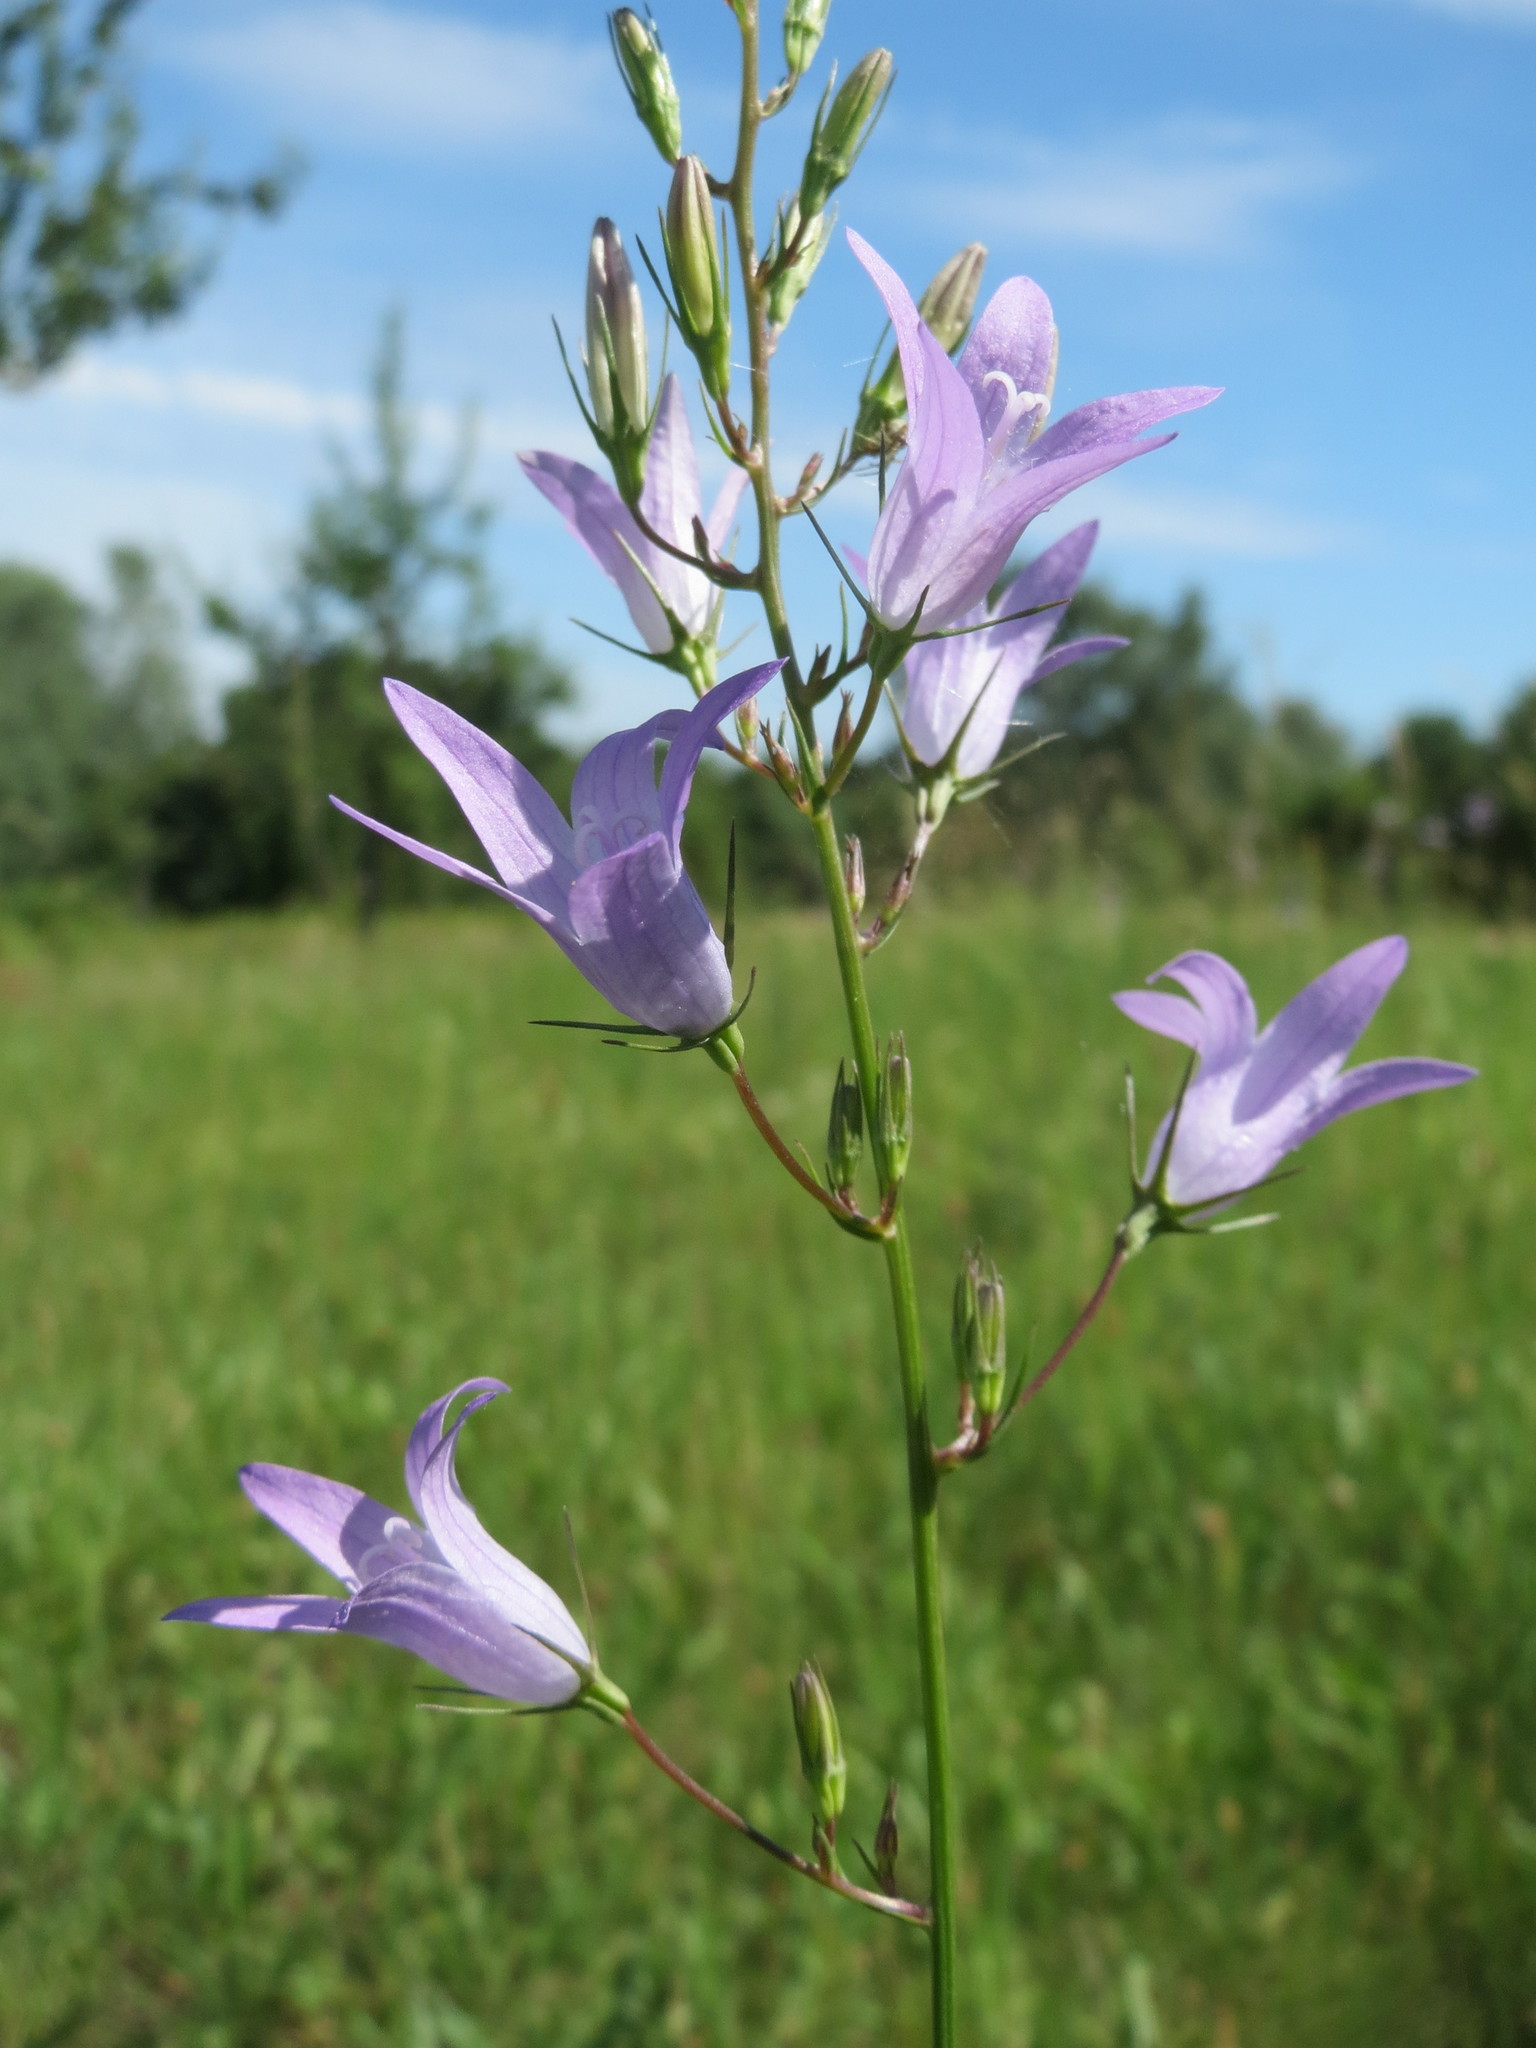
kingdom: Plantae
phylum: Tracheophyta
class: Magnoliopsida
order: Asterales
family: Campanulaceae
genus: Campanula
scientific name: Campanula rapunculus
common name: Rampion bellflower
